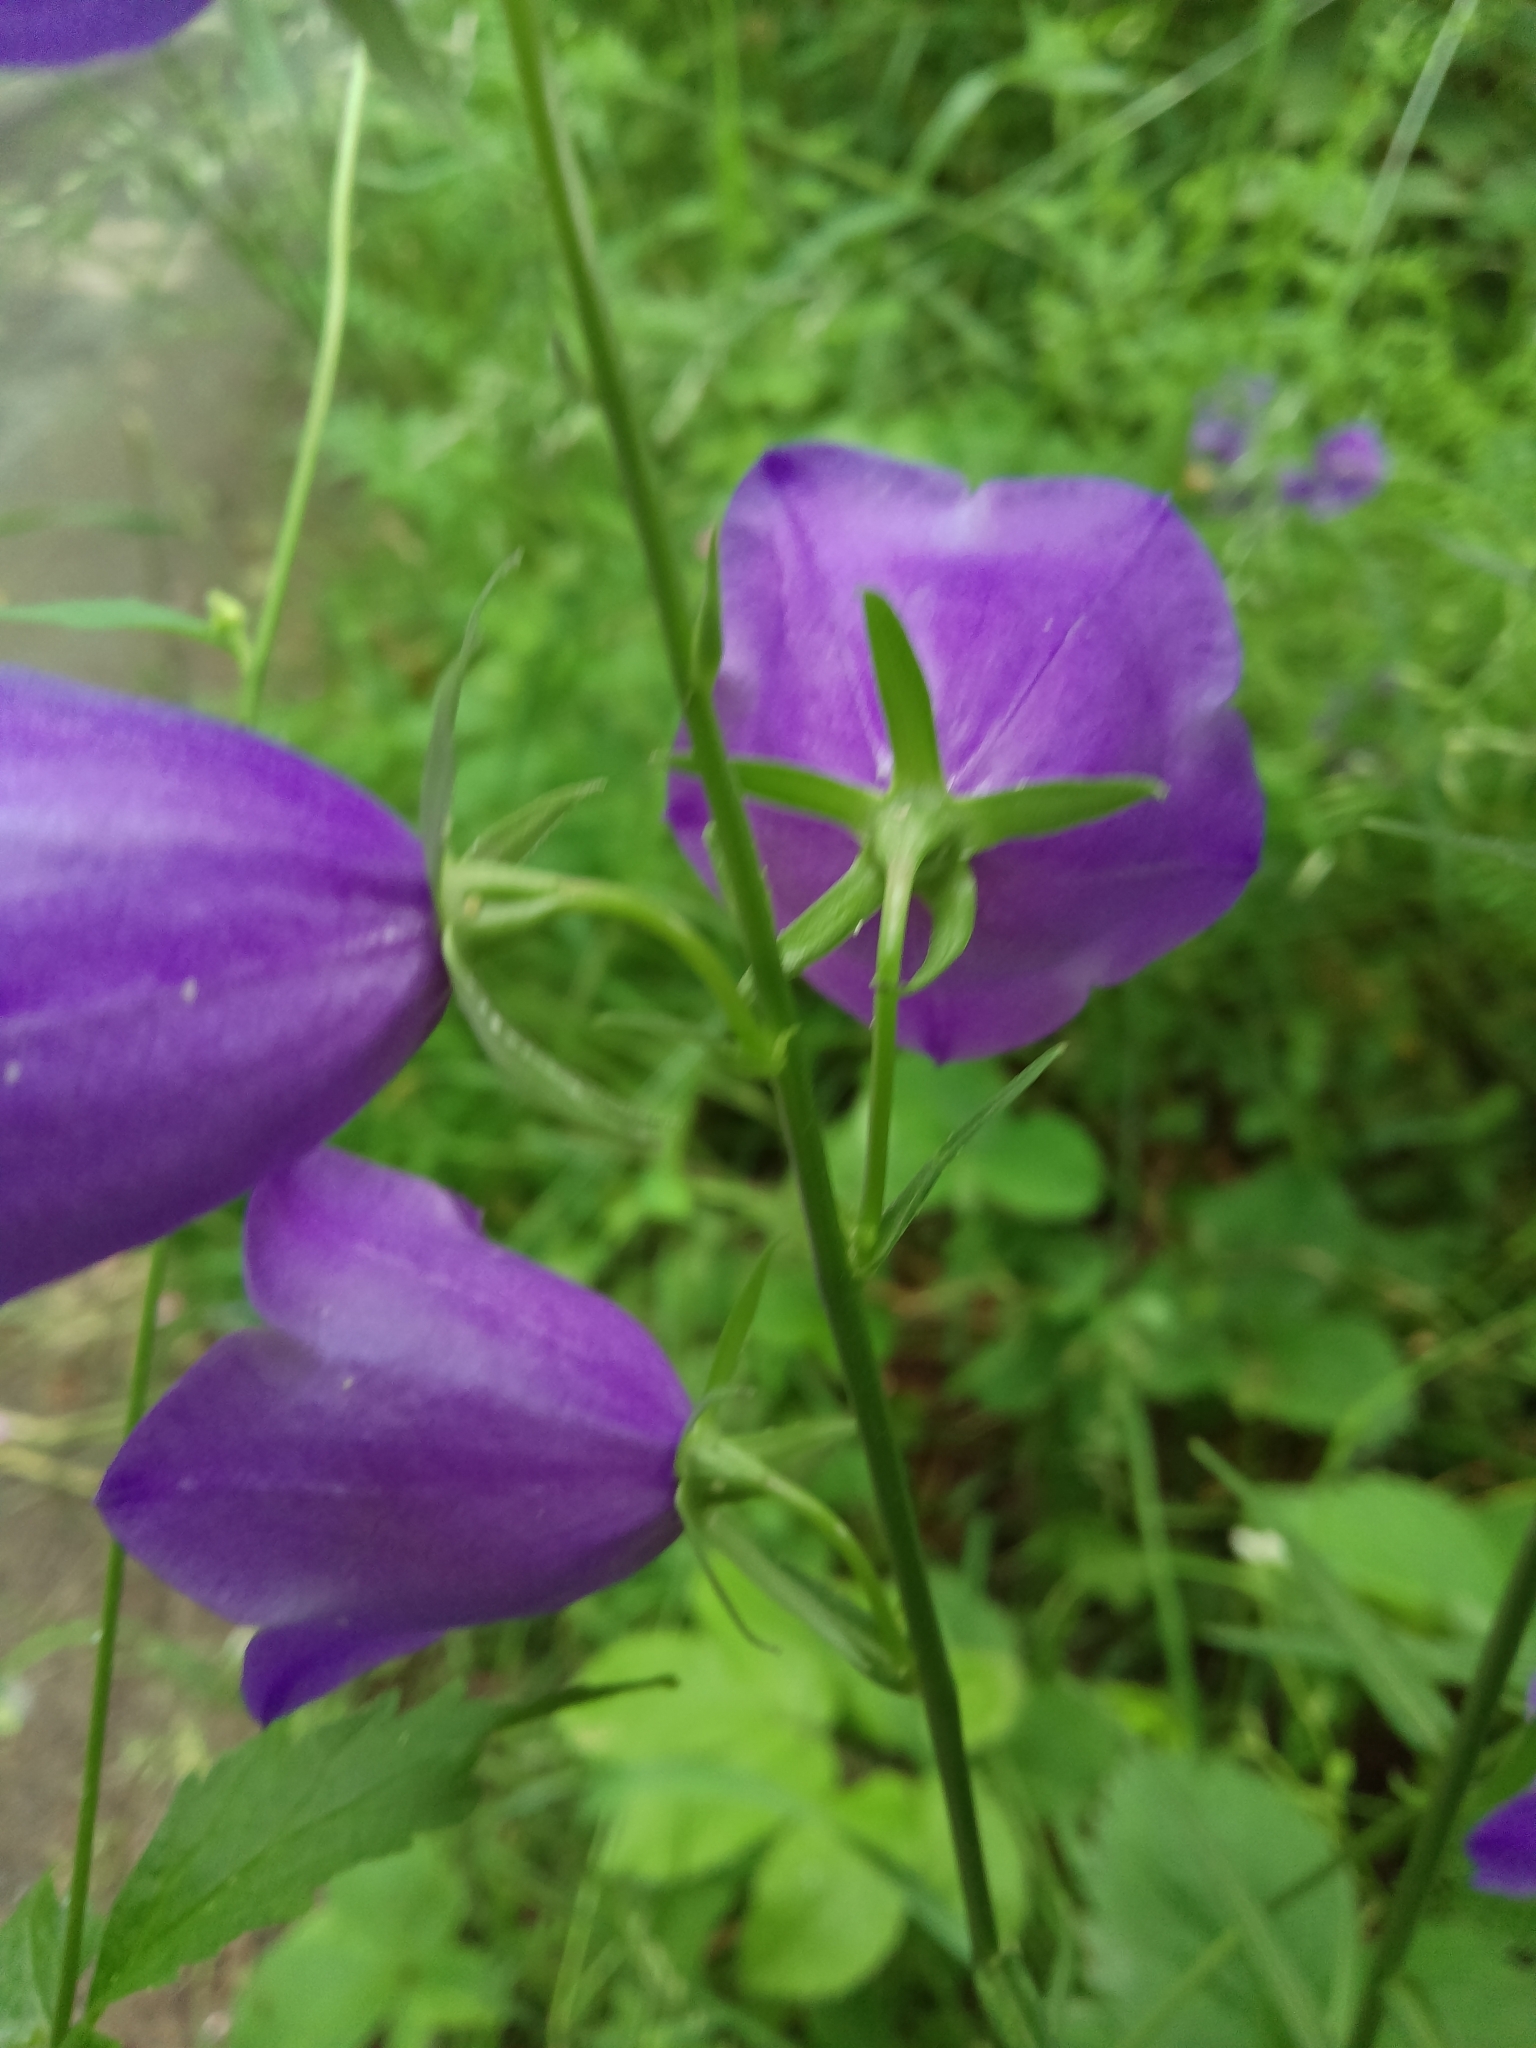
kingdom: Plantae
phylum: Tracheophyta
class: Magnoliopsida
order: Asterales
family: Campanulaceae
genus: Campanula
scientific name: Campanula persicifolia
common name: Peach-leaved bellflower
